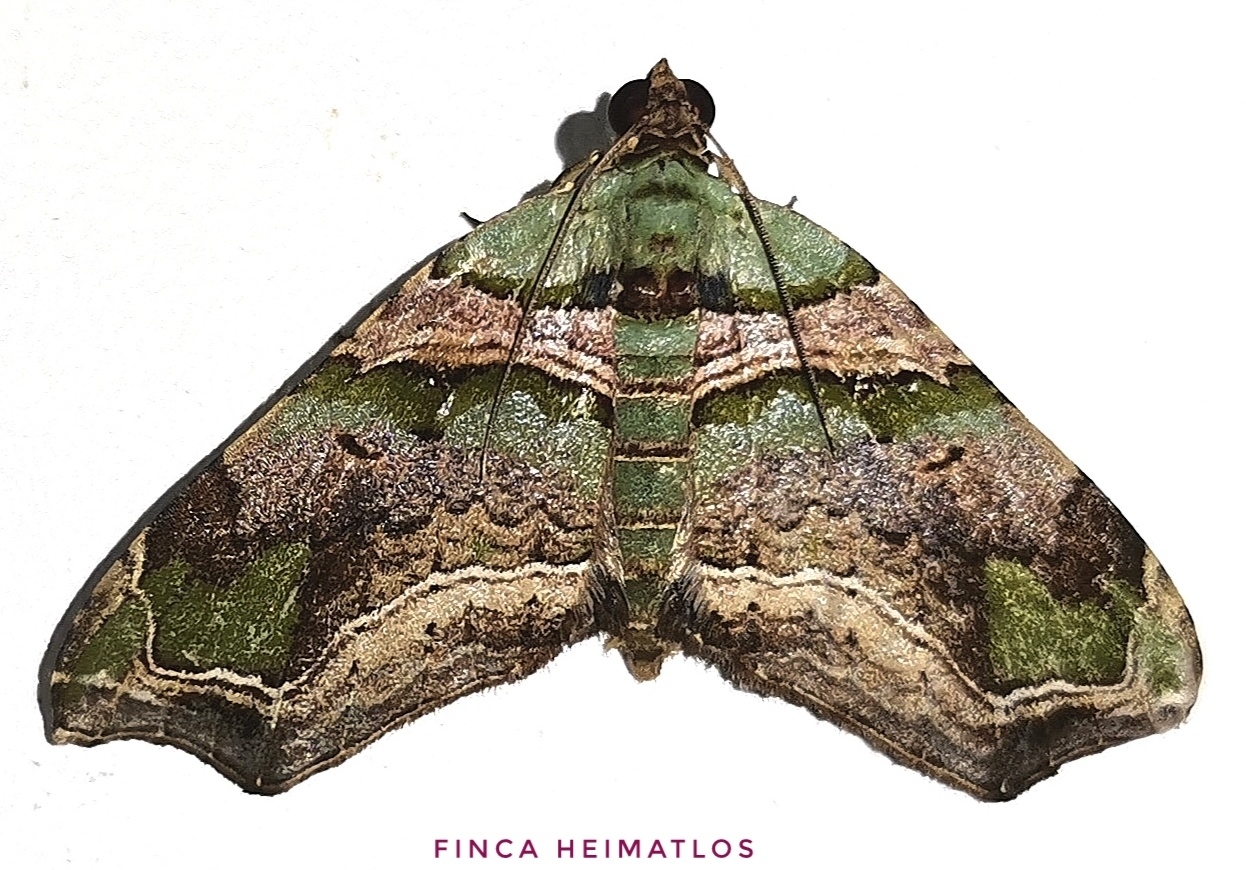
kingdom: Animalia
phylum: Arthropoda
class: Insecta
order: Lepidoptera
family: Geometridae
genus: Oligopleura
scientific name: Oligopleura aulaeata
